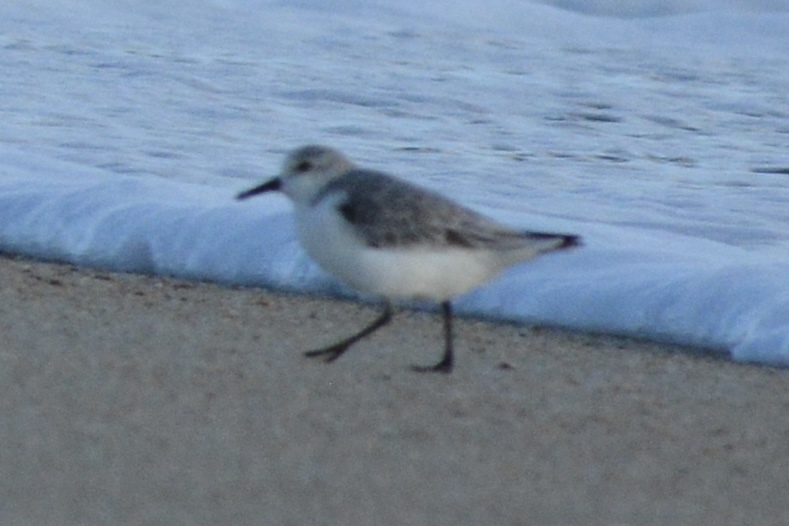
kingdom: Animalia
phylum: Chordata
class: Aves
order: Charadriiformes
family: Scolopacidae
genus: Calidris
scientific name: Calidris alba
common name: Sanderling
